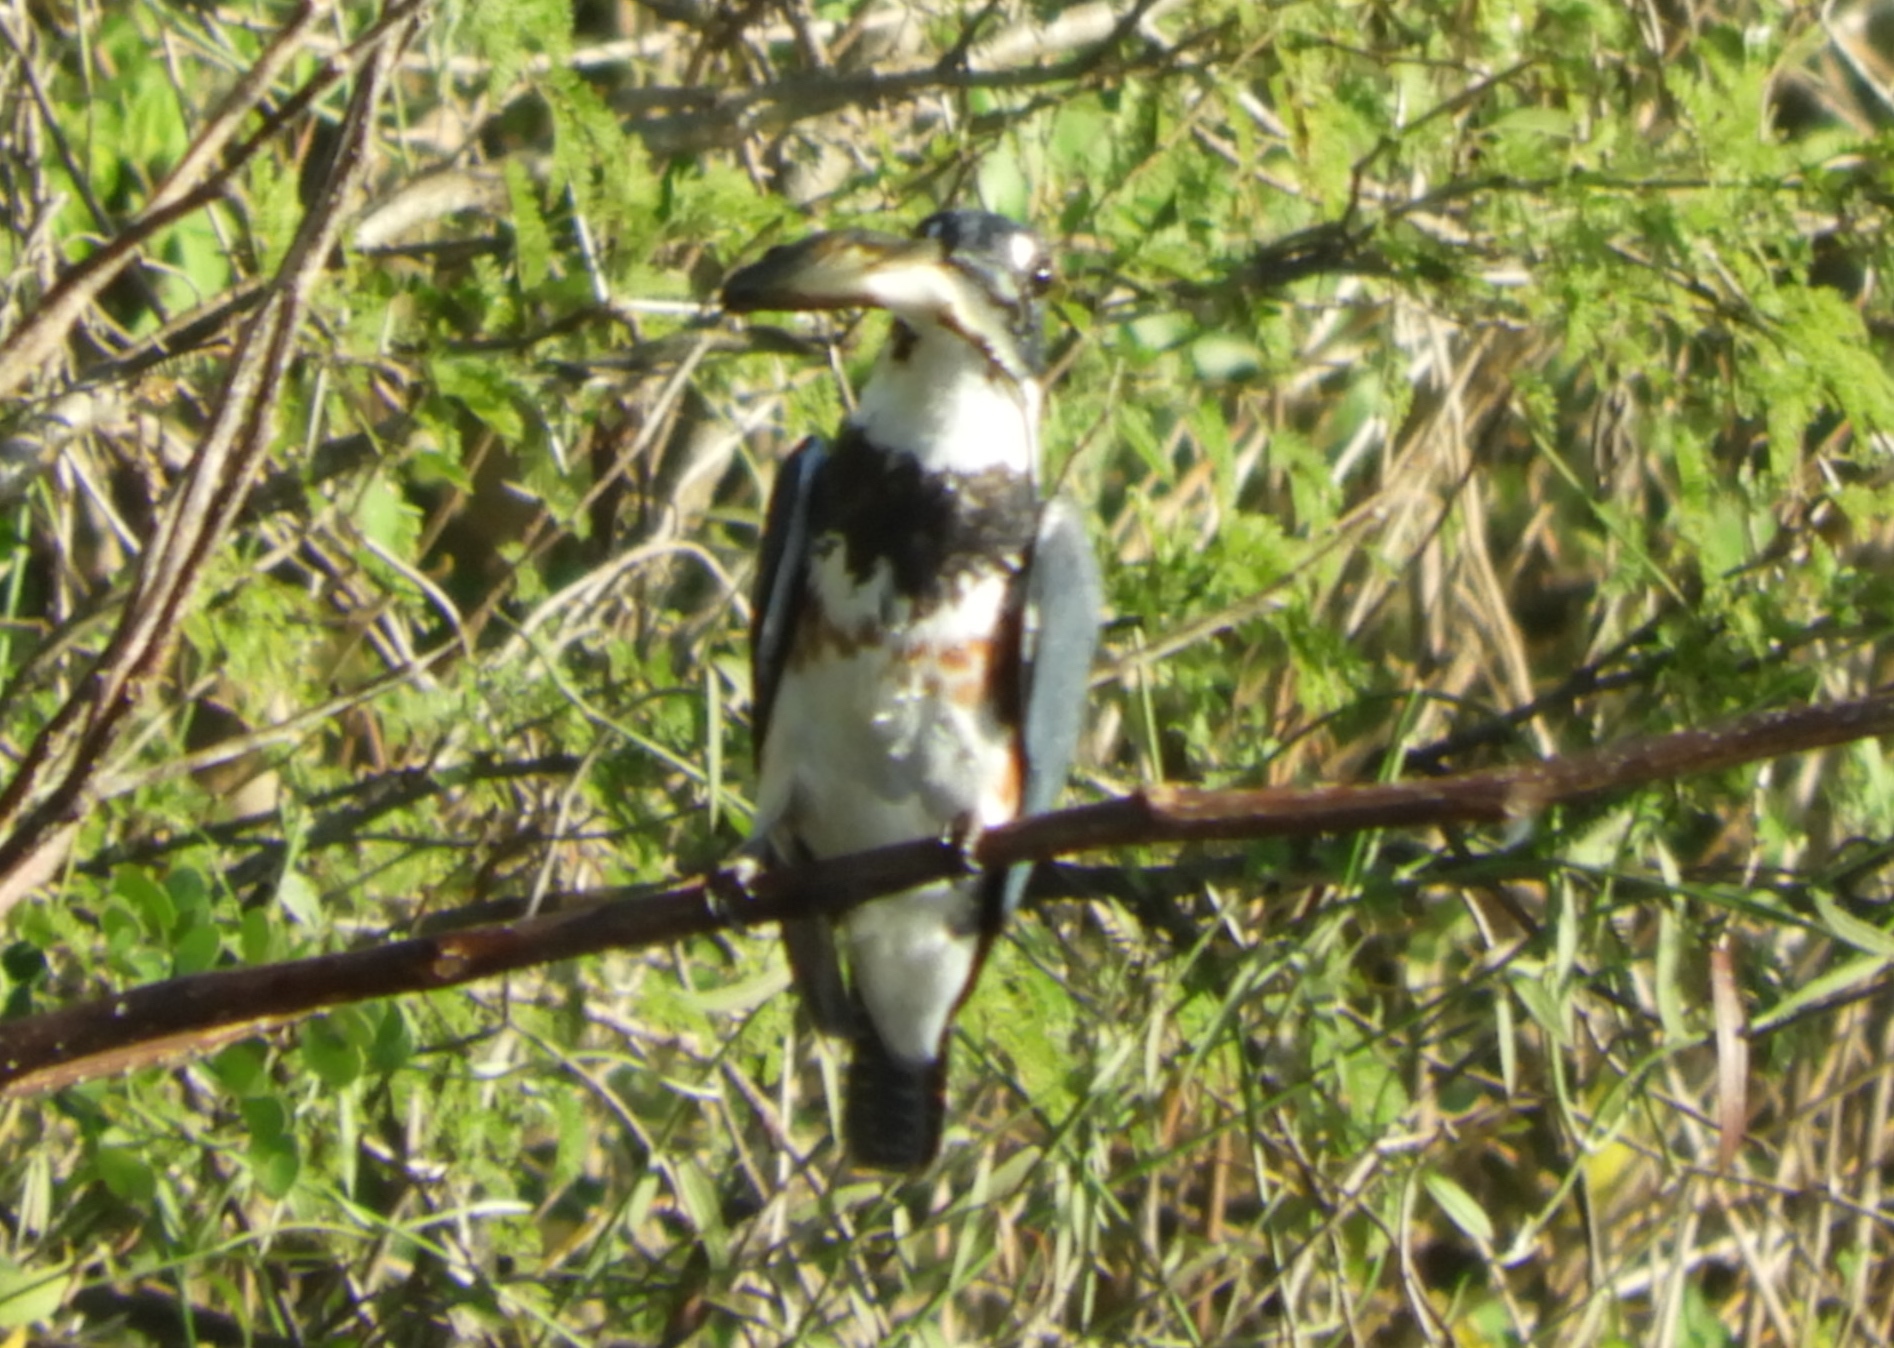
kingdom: Animalia
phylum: Chordata
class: Aves
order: Coraciiformes
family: Alcedinidae
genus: Megaceryle
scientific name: Megaceryle alcyon
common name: Belted kingfisher
